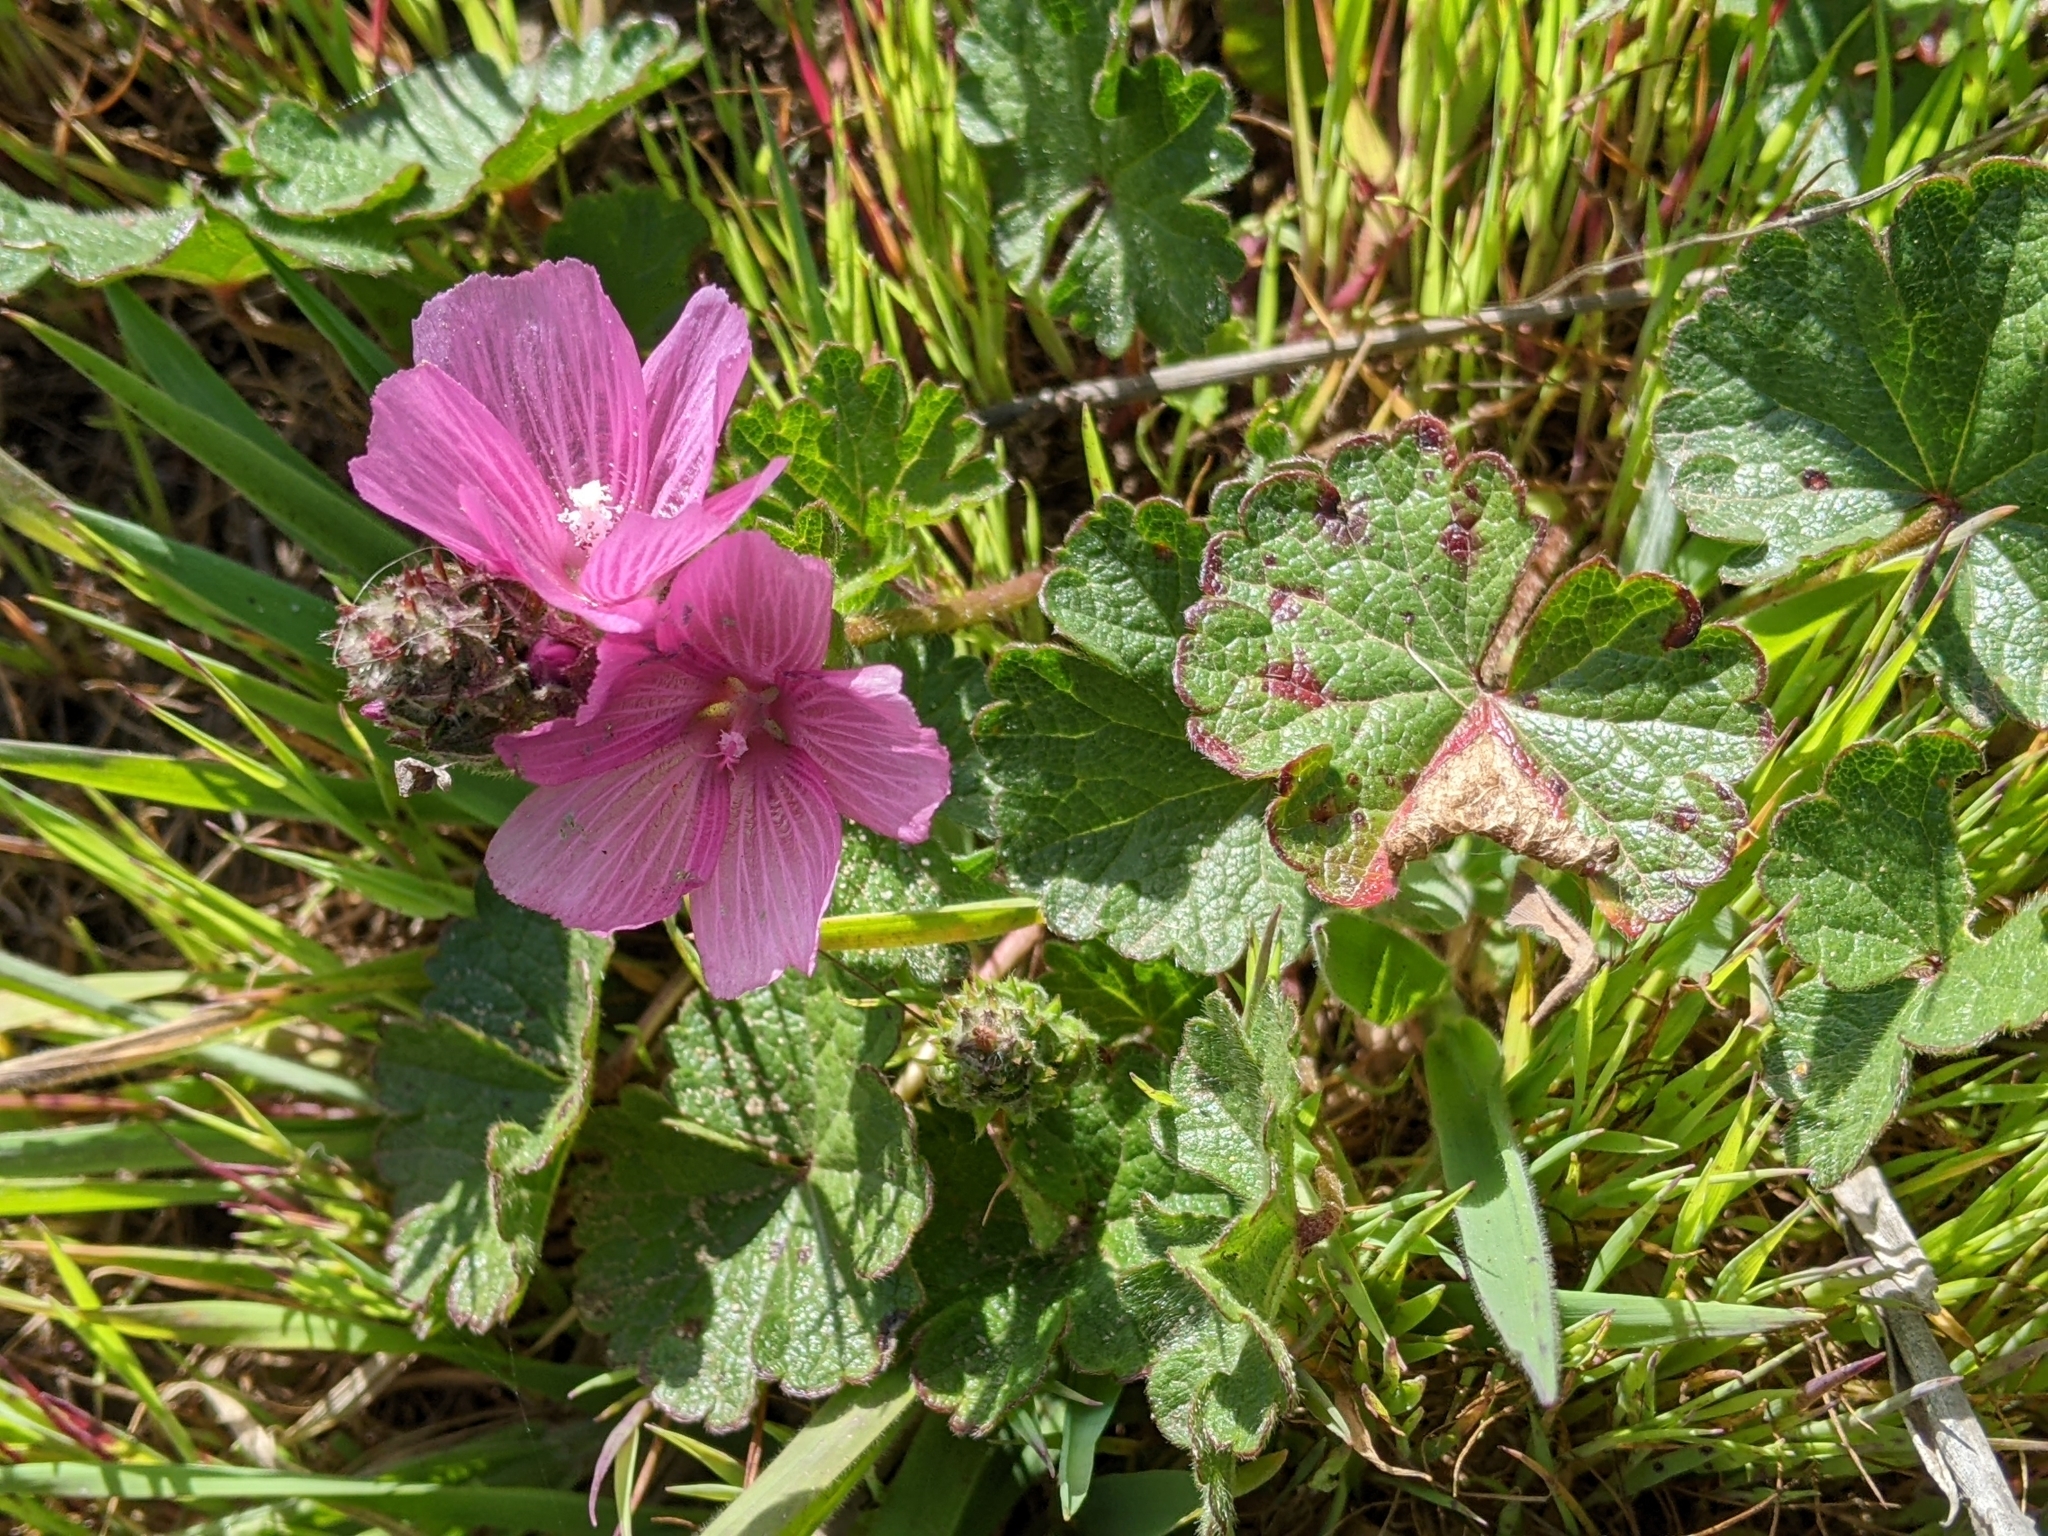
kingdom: Plantae
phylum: Tracheophyta
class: Magnoliopsida
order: Malvales
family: Malvaceae
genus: Sidalcea
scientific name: Sidalcea malviflora
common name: Greek mallow
